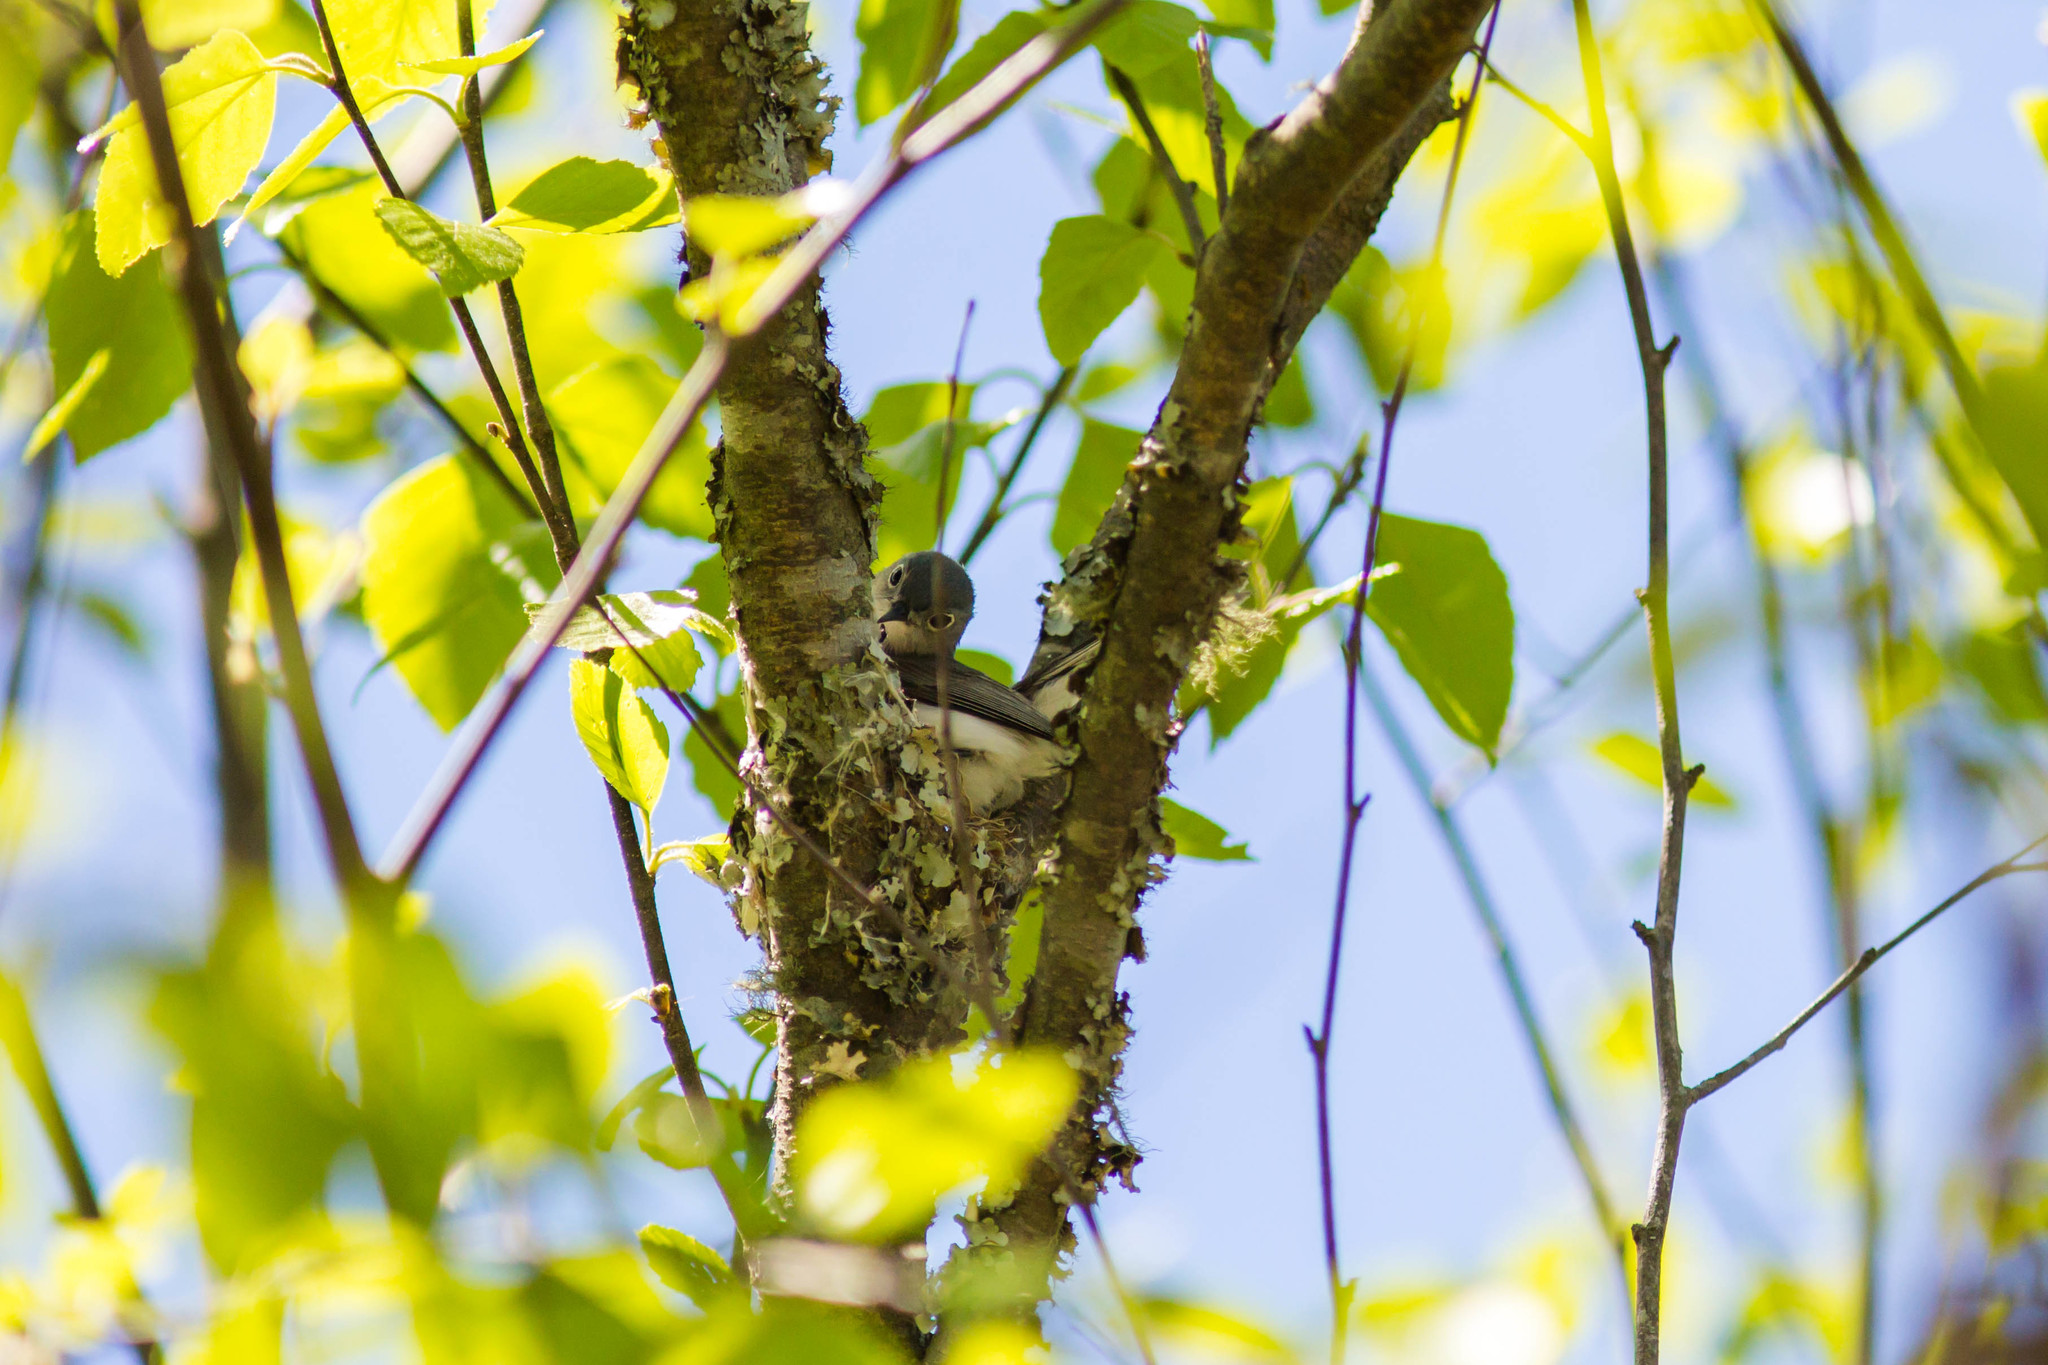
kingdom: Animalia
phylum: Chordata
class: Aves
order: Passeriformes
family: Polioptilidae
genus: Polioptila
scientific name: Polioptila caerulea
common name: Blue-gray gnatcatcher
